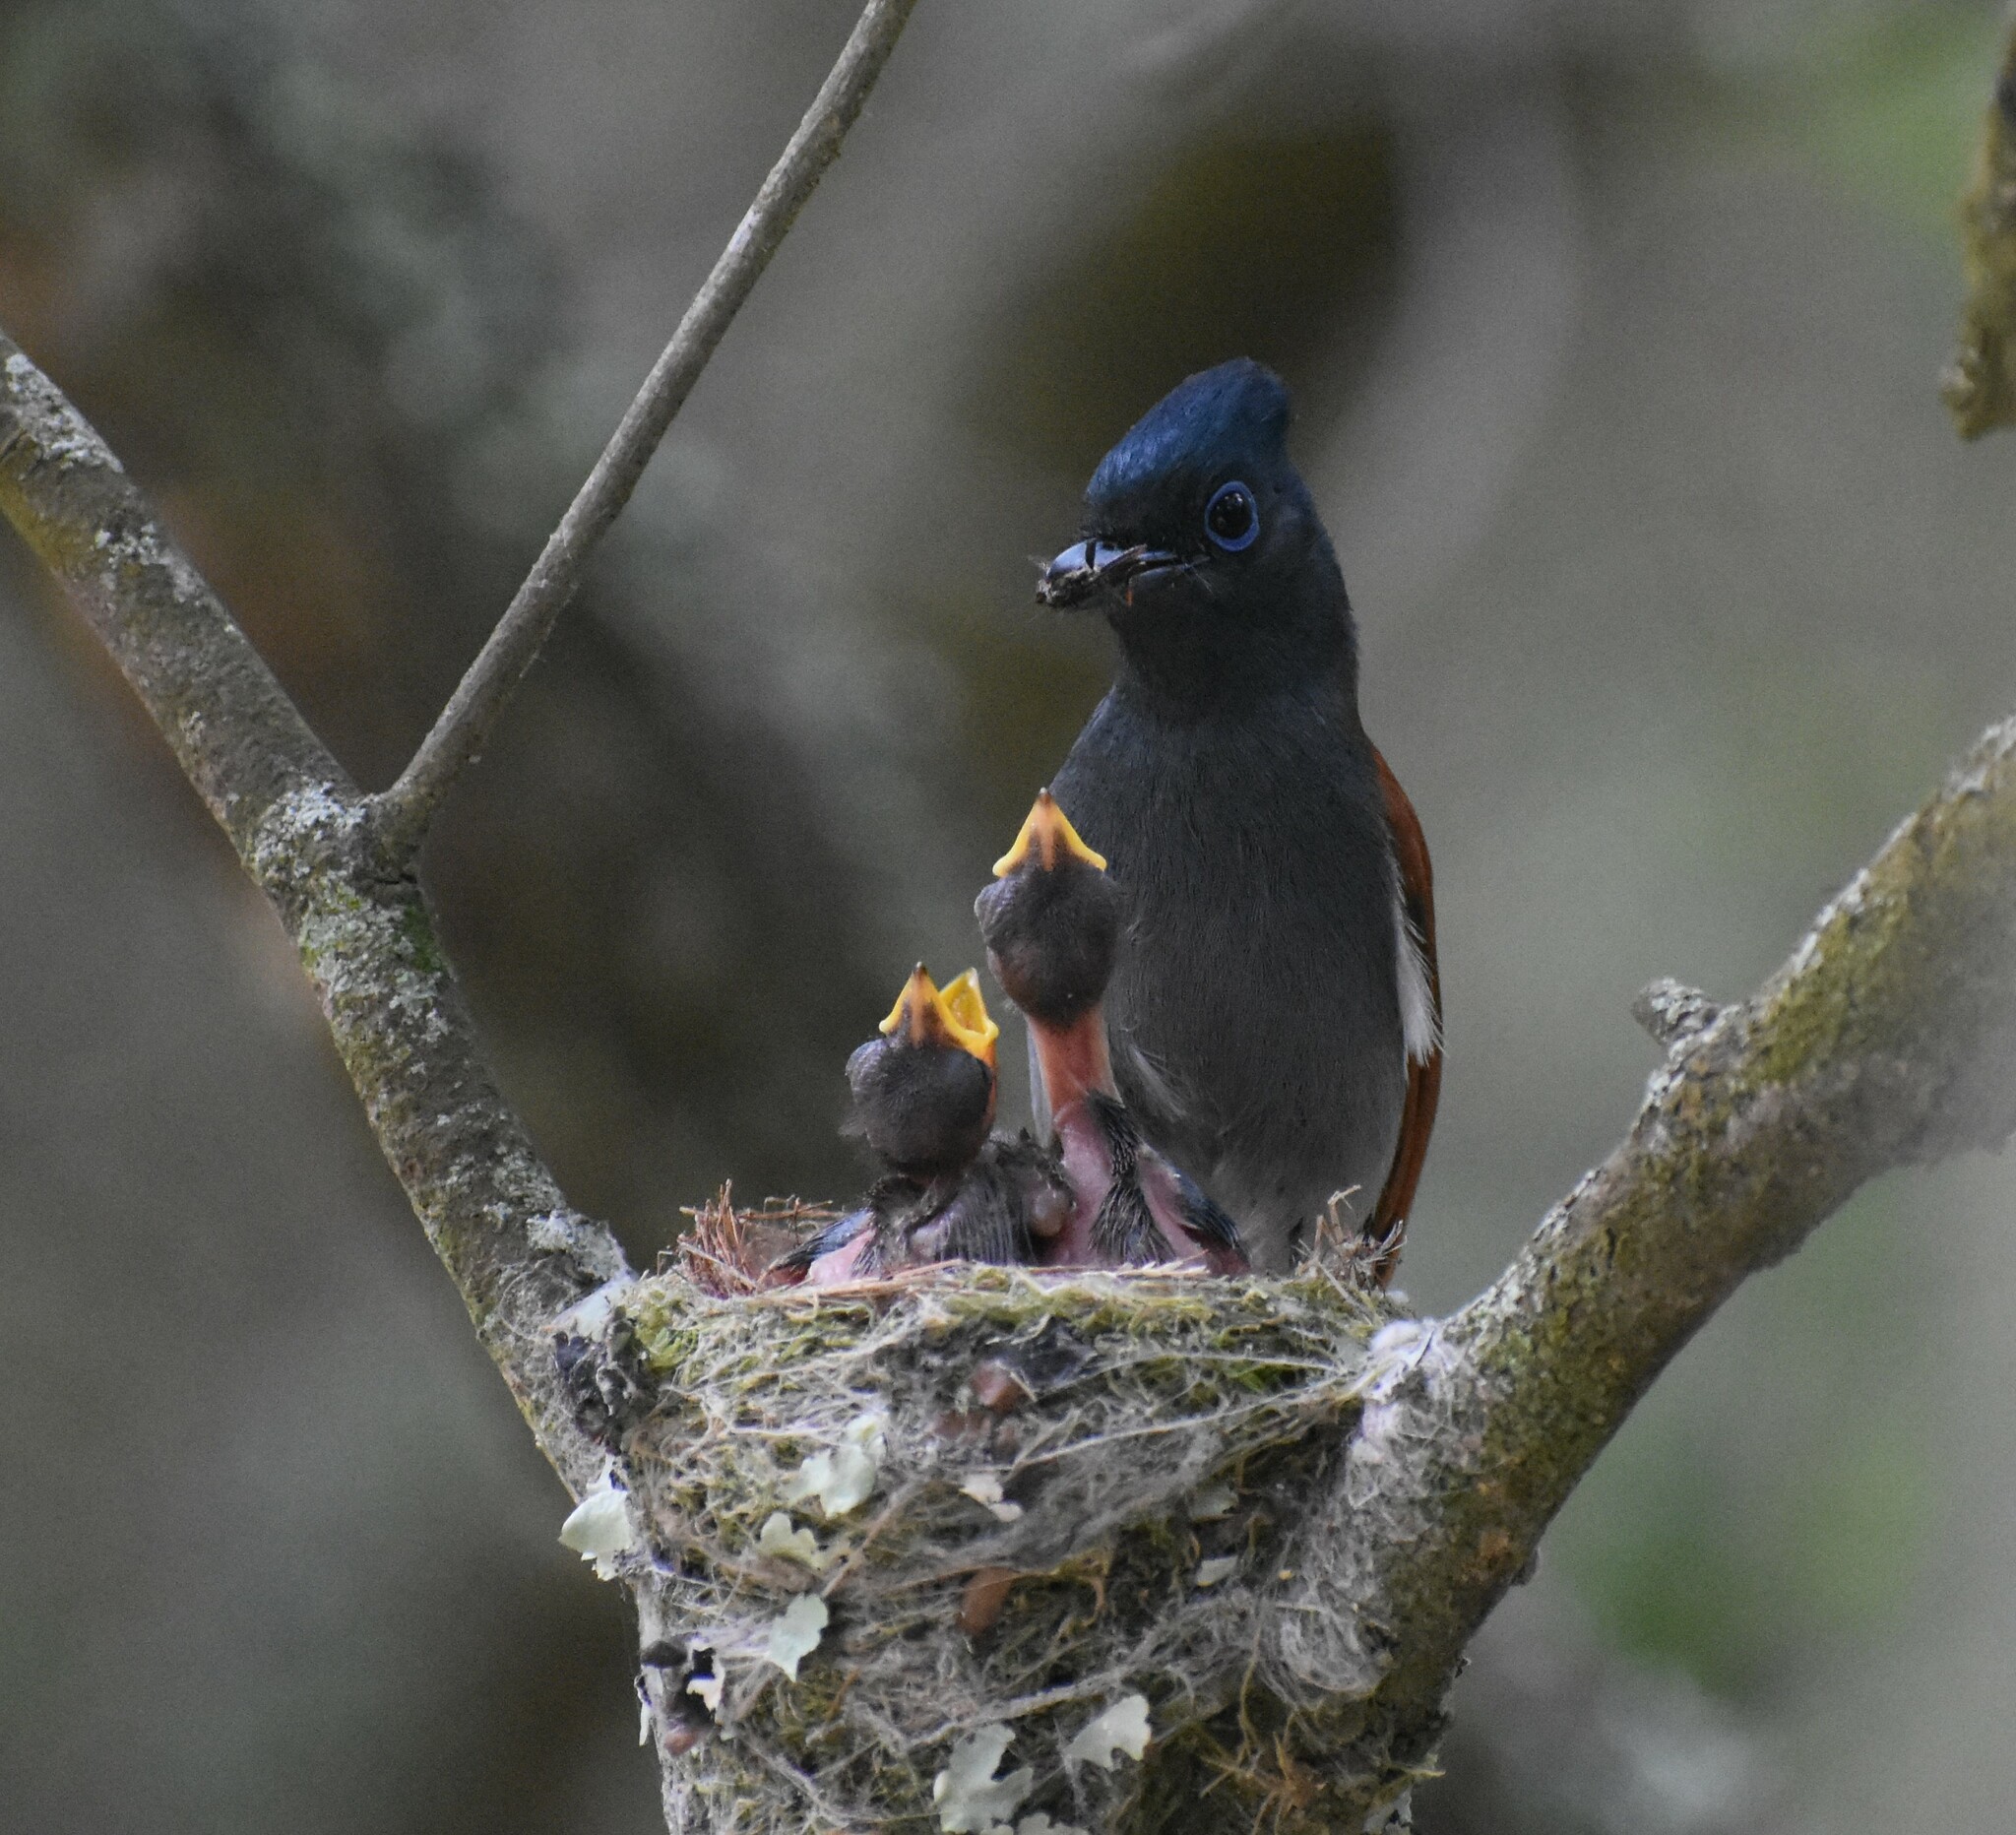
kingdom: Animalia
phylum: Chordata
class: Aves
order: Passeriformes
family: Monarchidae
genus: Terpsiphone
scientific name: Terpsiphone viridis
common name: African paradise flycatcher
